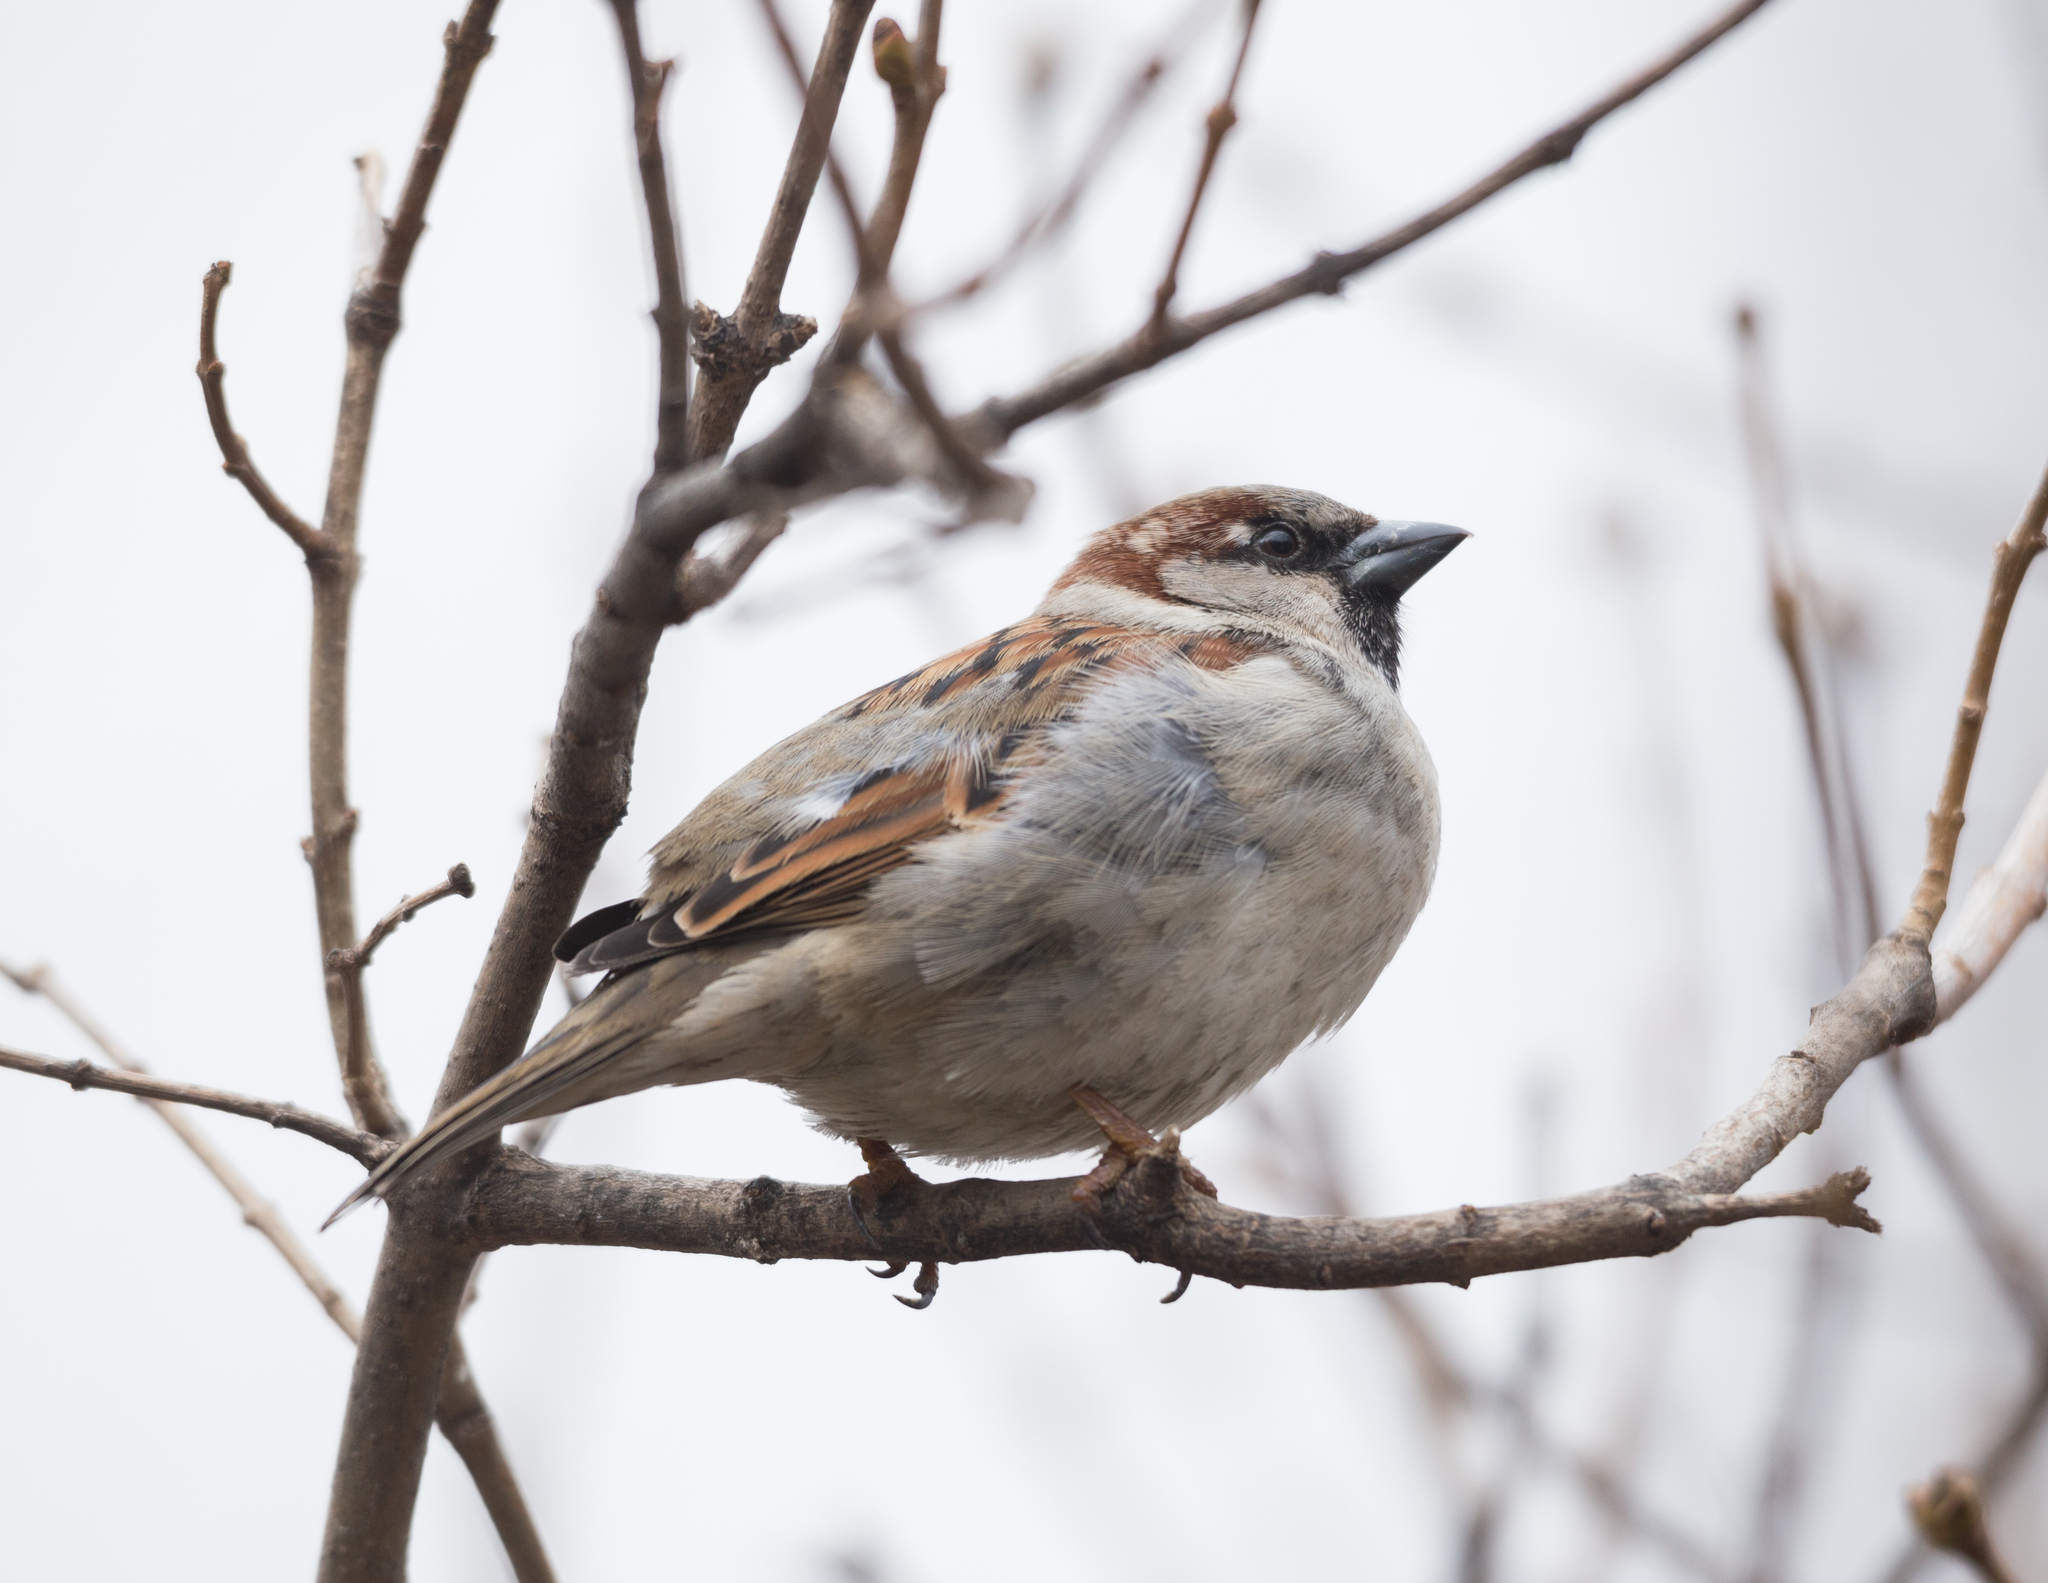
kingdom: Animalia
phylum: Chordata
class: Aves
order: Passeriformes
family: Passeridae
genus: Passer
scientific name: Passer domesticus
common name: House sparrow
